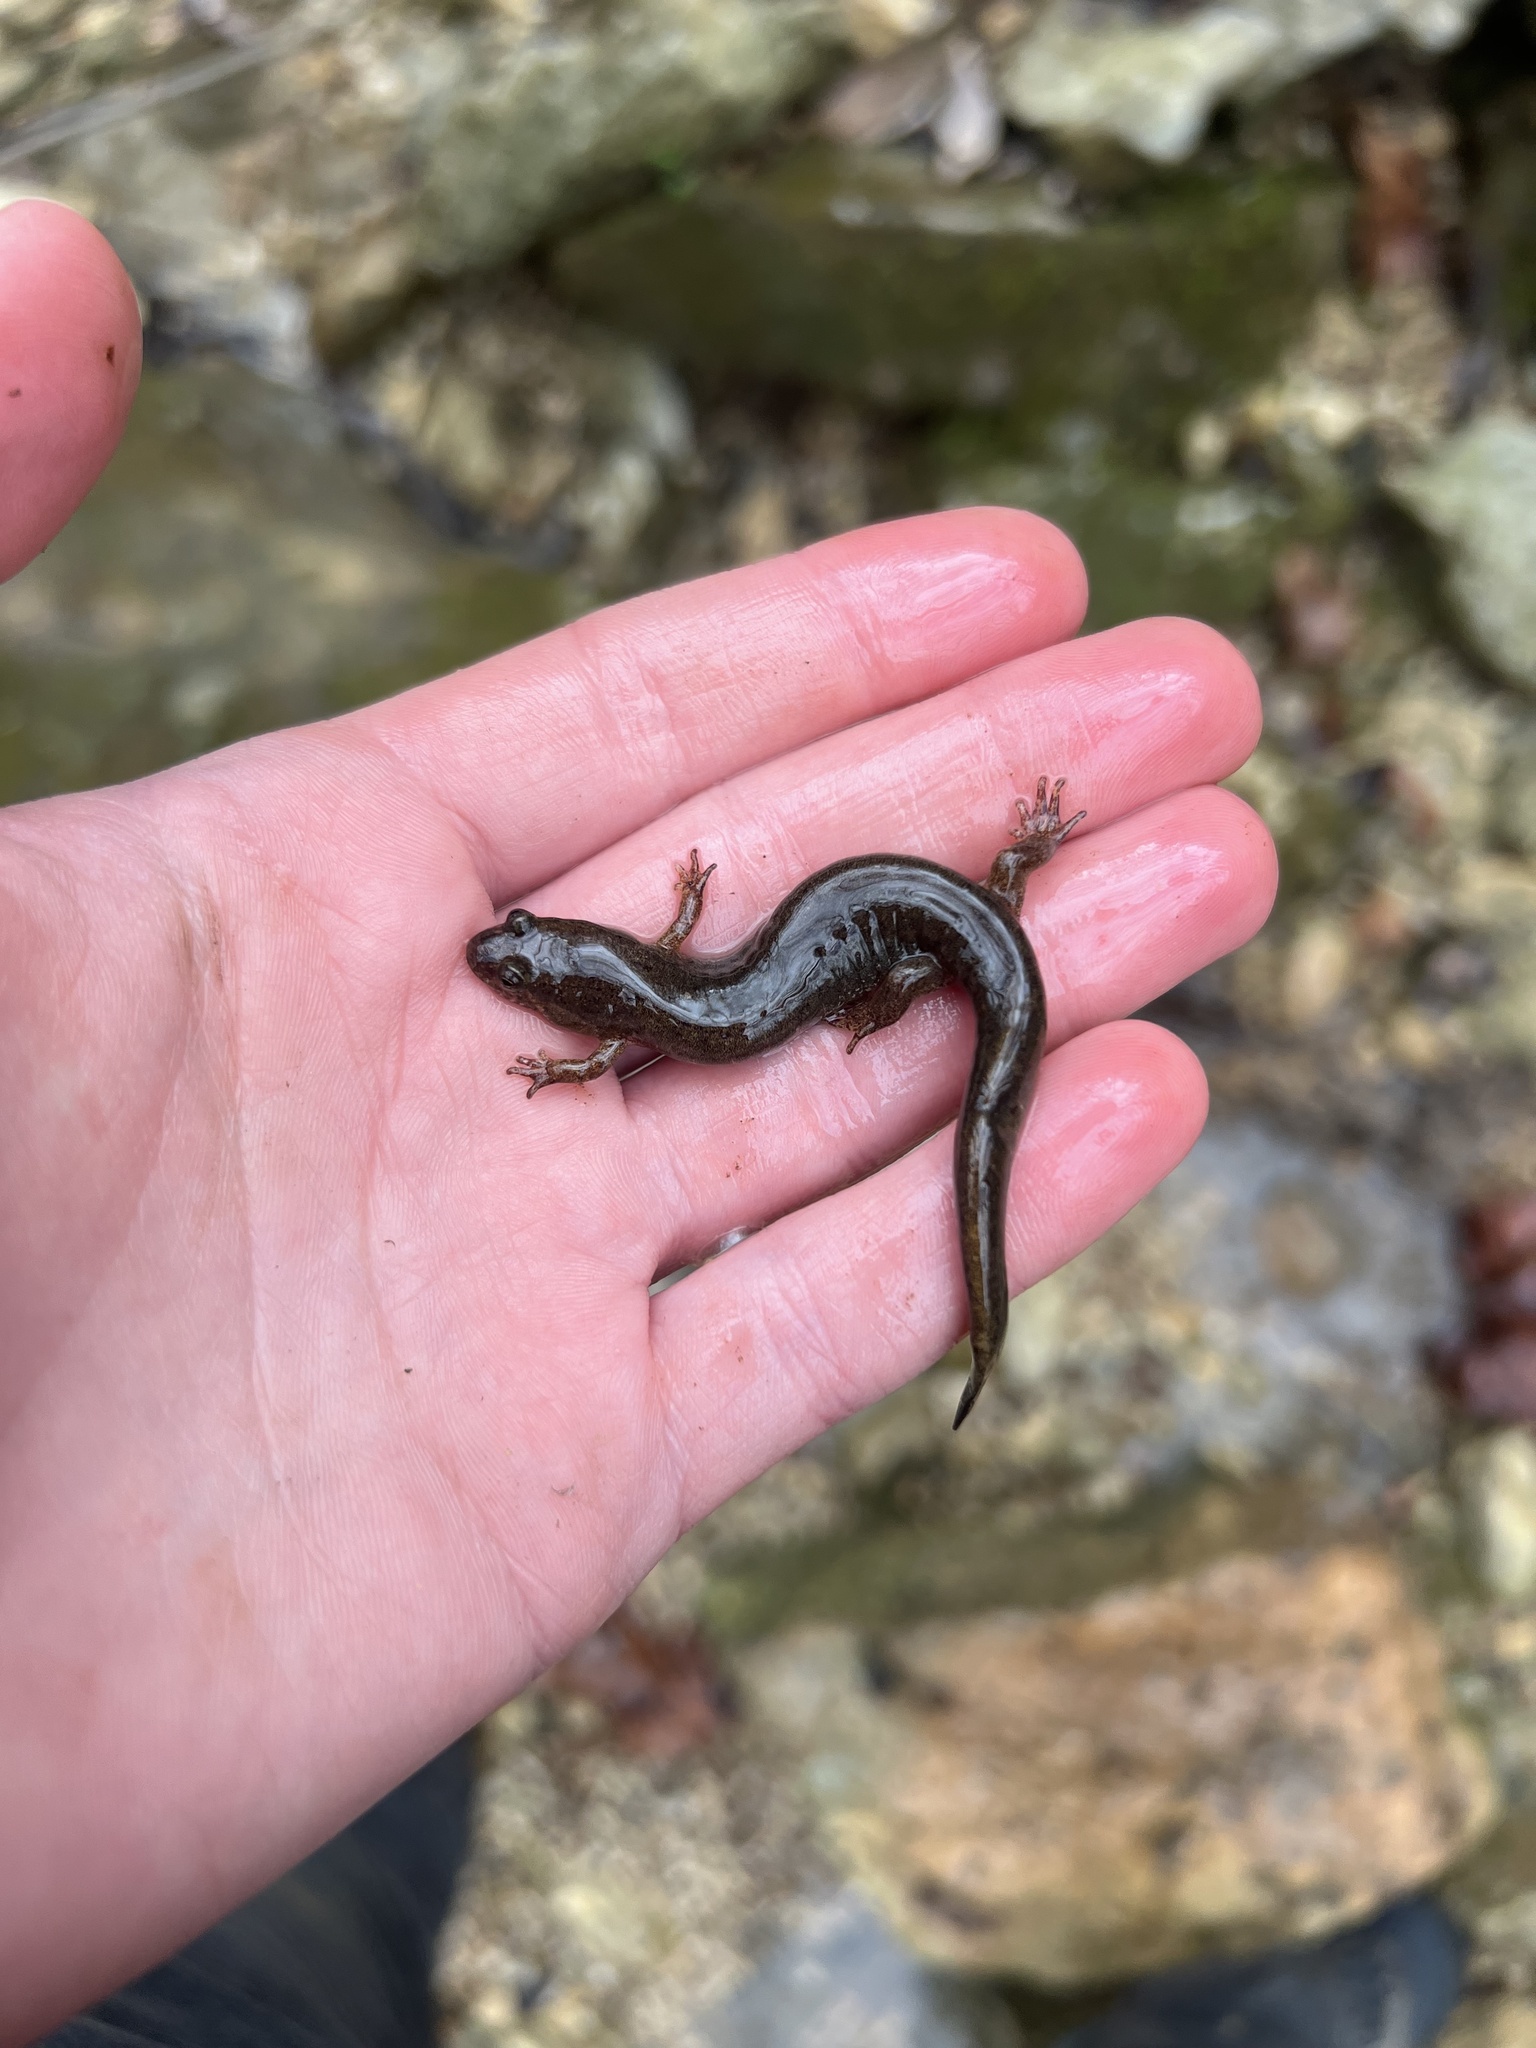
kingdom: Animalia
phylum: Chordata
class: Amphibia
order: Caudata
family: Plethodontidae
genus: Desmognathus
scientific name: Desmognathus conanti
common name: Spotted dusky salamander
